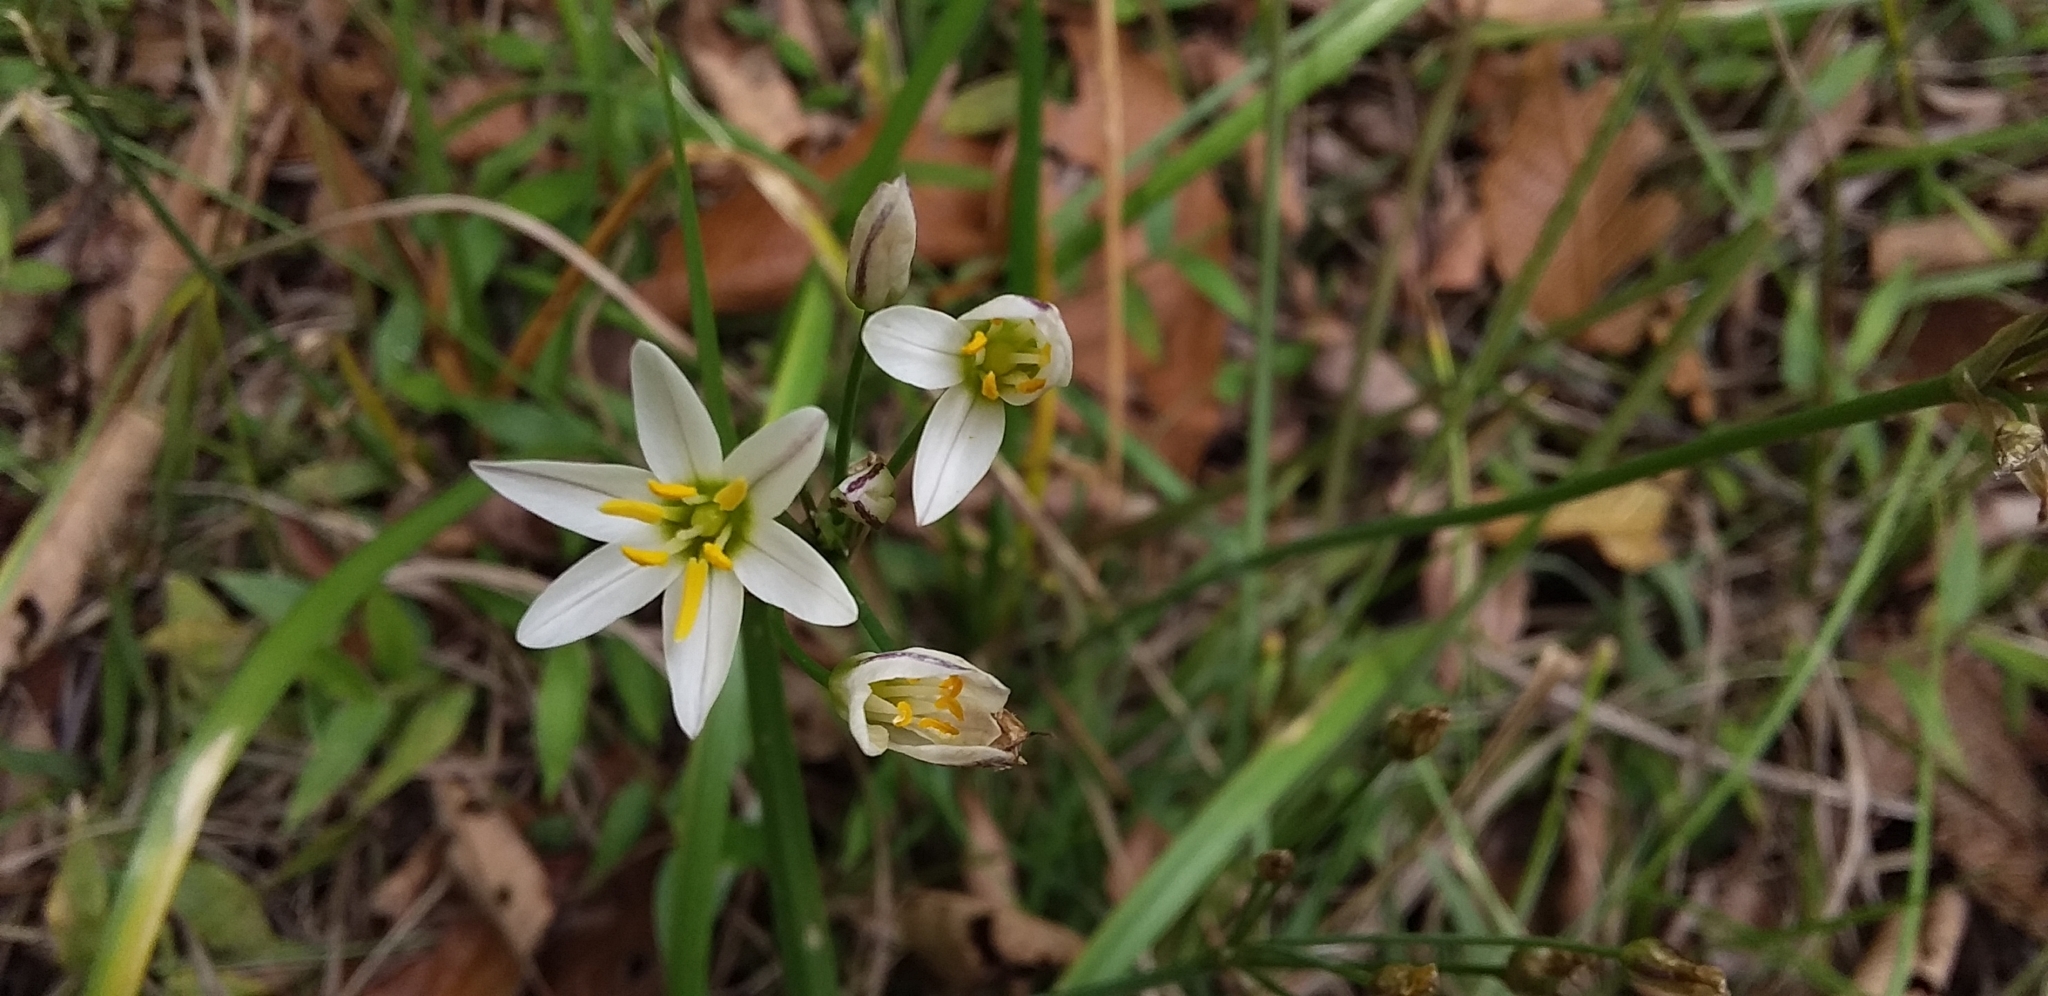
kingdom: Plantae
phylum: Tracheophyta
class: Liliopsida
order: Asparagales
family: Amaryllidaceae
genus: Nothoscordum
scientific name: Nothoscordum bivalve
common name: Crow-poison
